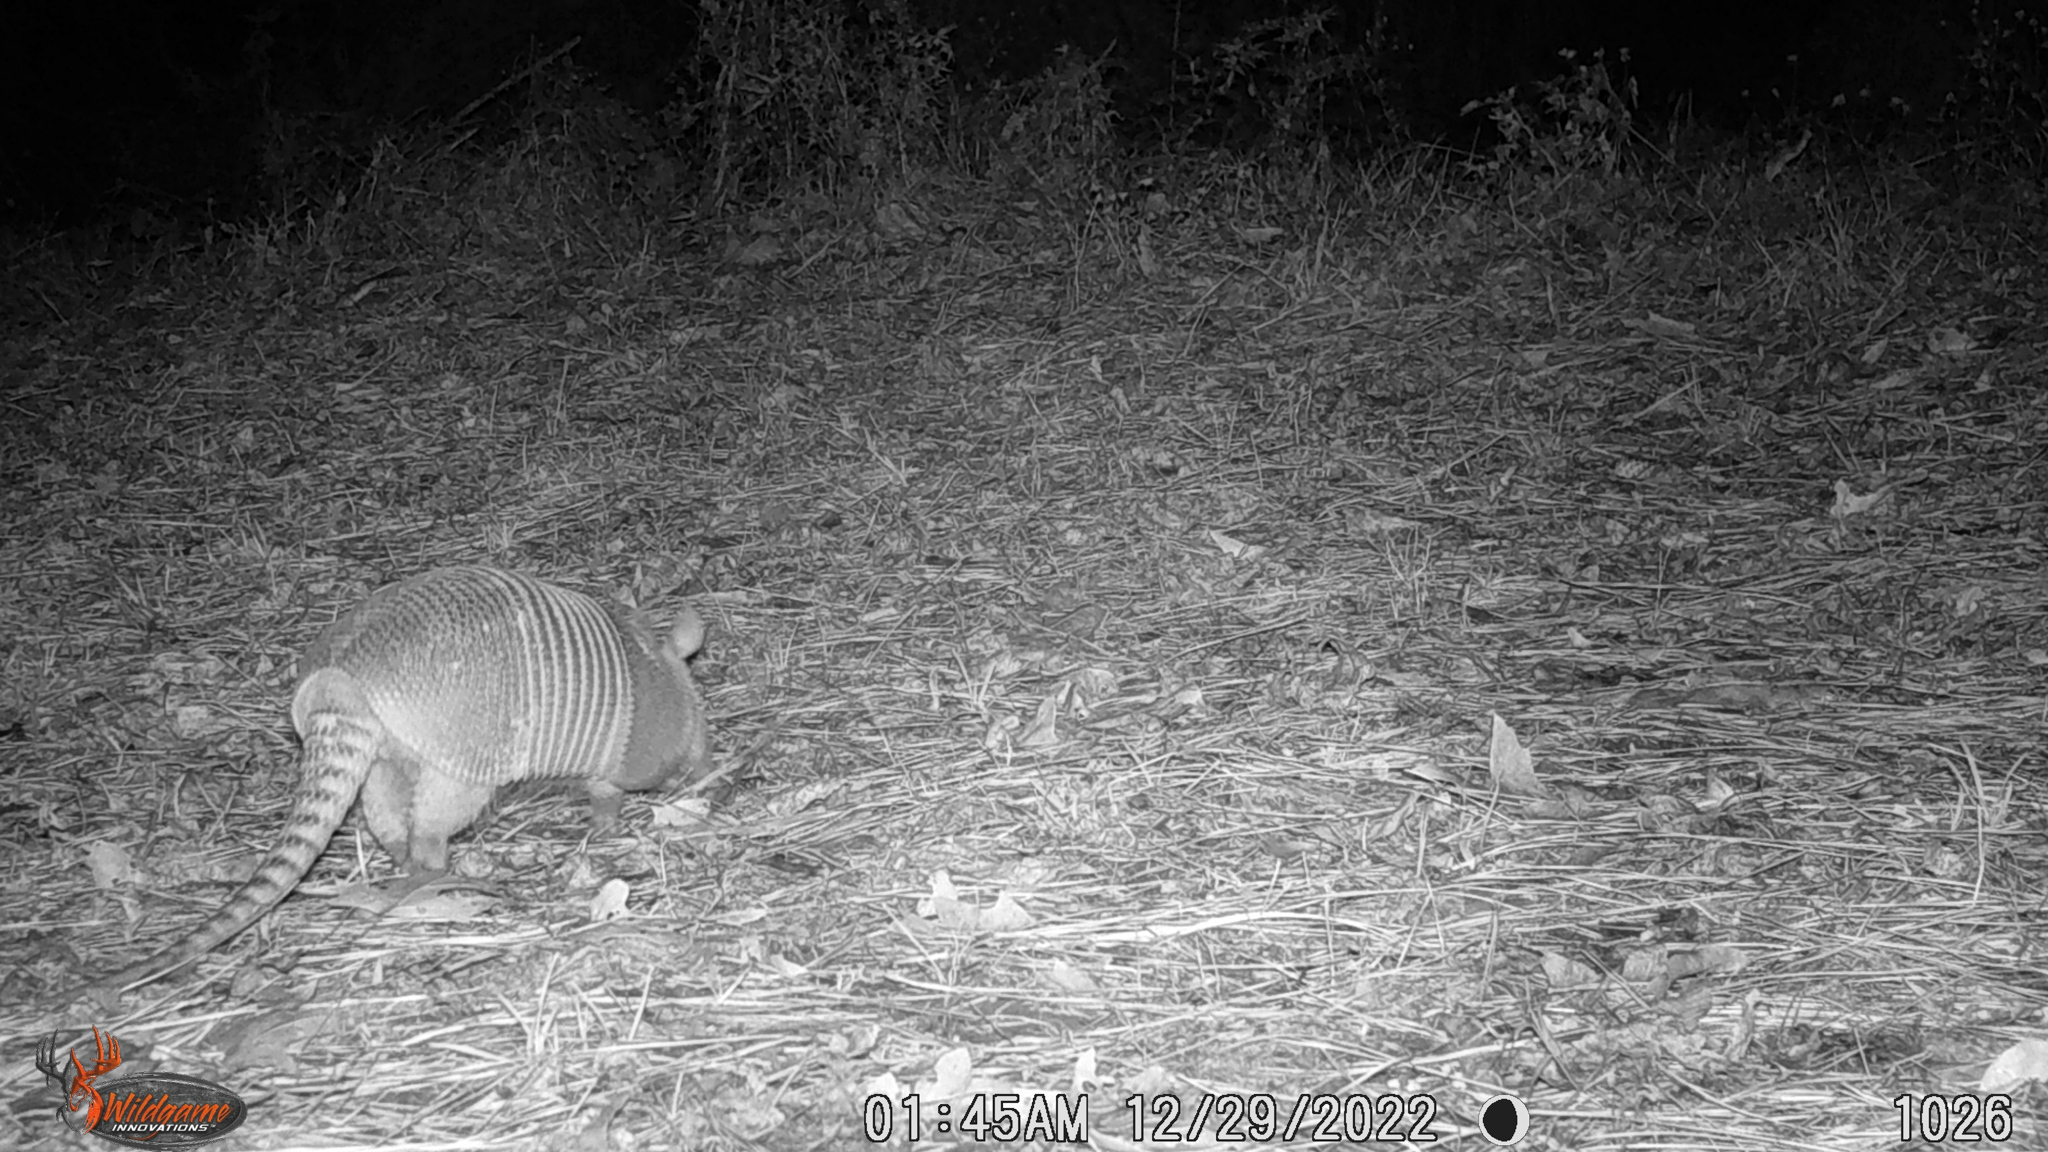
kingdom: Animalia
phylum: Chordata
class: Mammalia
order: Cingulata
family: Dasypodidae
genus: Dasypus
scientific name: Dasypus novemcinctus
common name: Nine-banded armadillo
